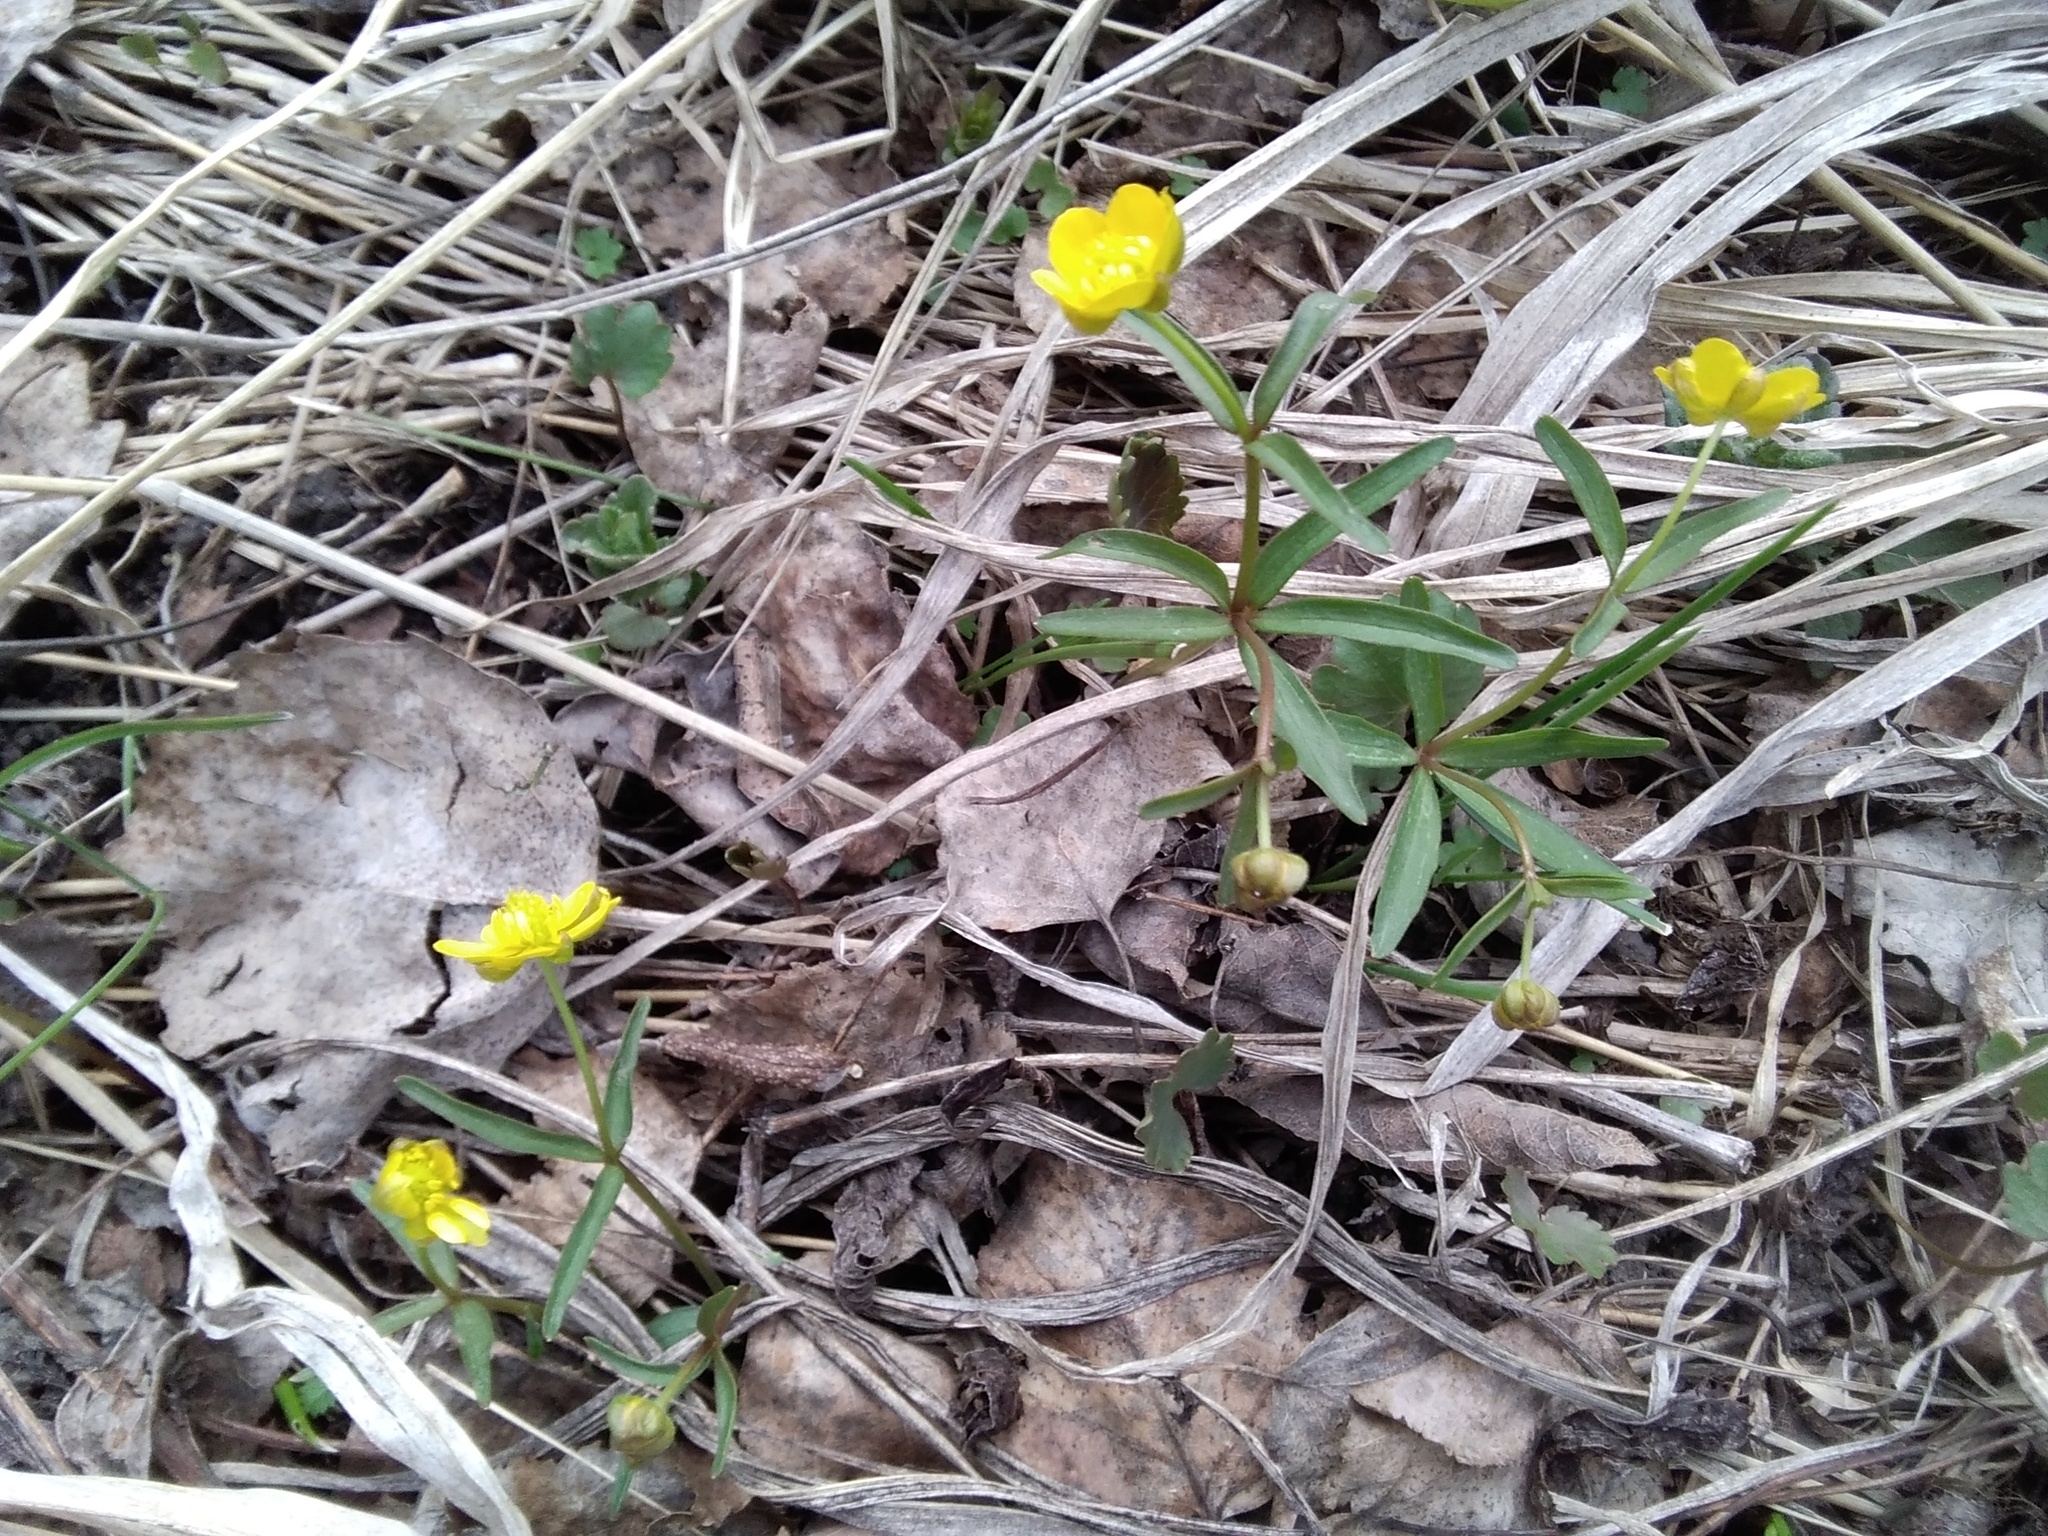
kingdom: Plantae
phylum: Tracheophyta
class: Magnoliopsida
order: Ranunculales
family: Ranunculaceae
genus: Ranunculus
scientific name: Ranunculus monophyllus
